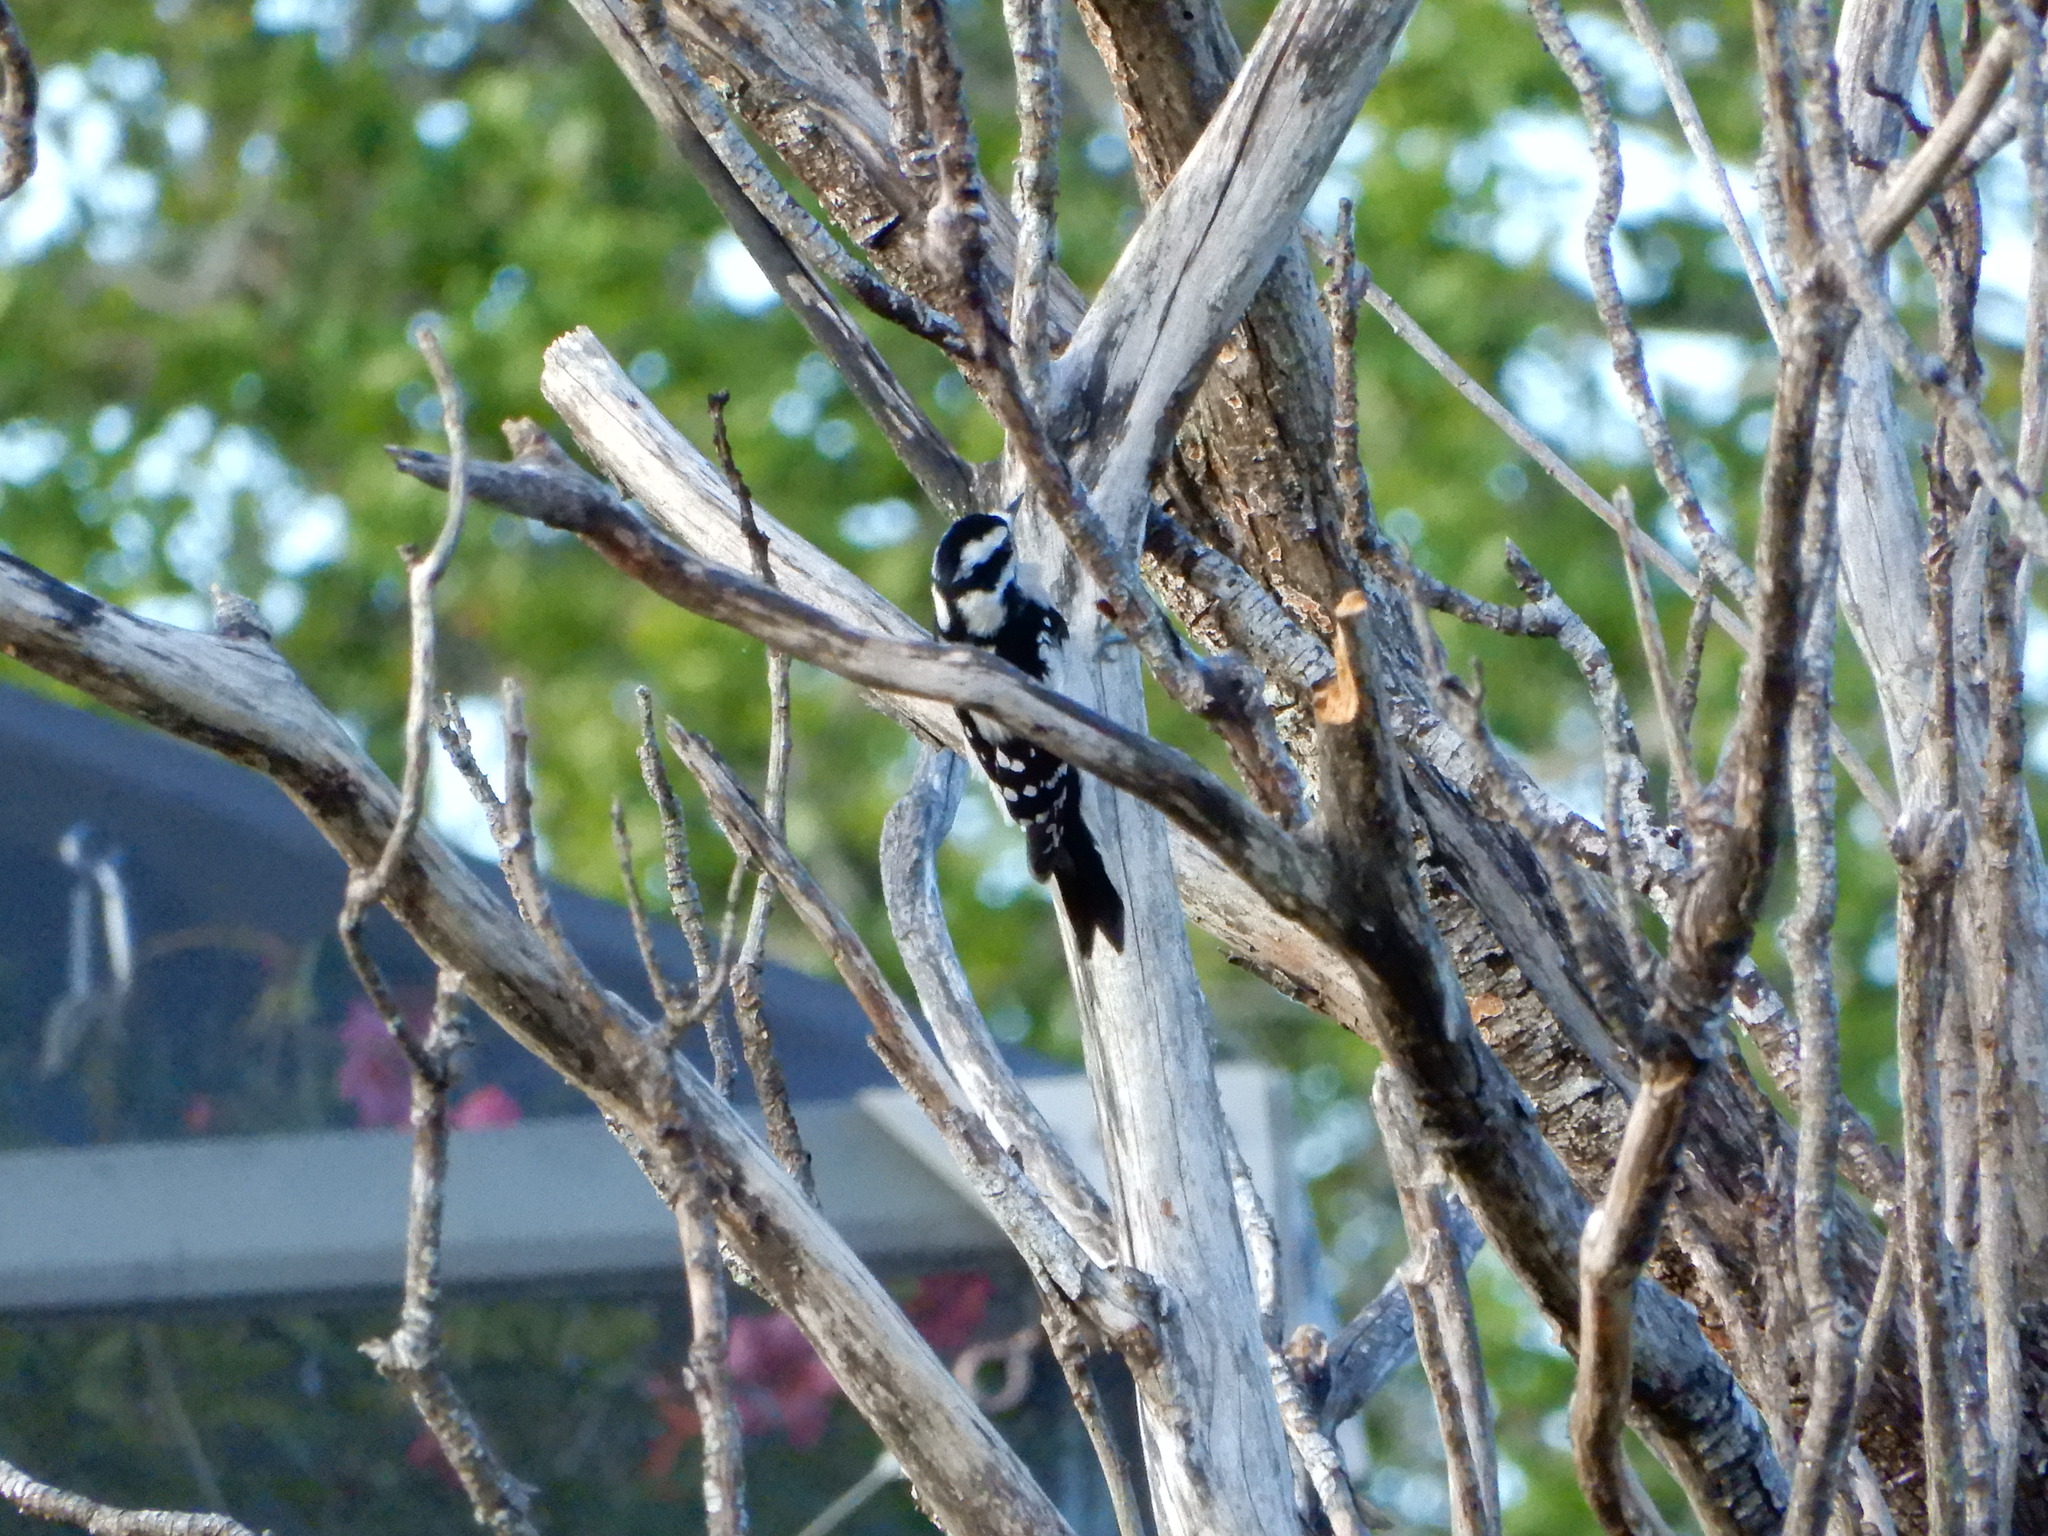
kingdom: Animalia
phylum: Chordata
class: Aves
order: Piciformes
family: Picidae
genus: Dryobates
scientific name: Dryobates pubescens
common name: Downy woodpecker
